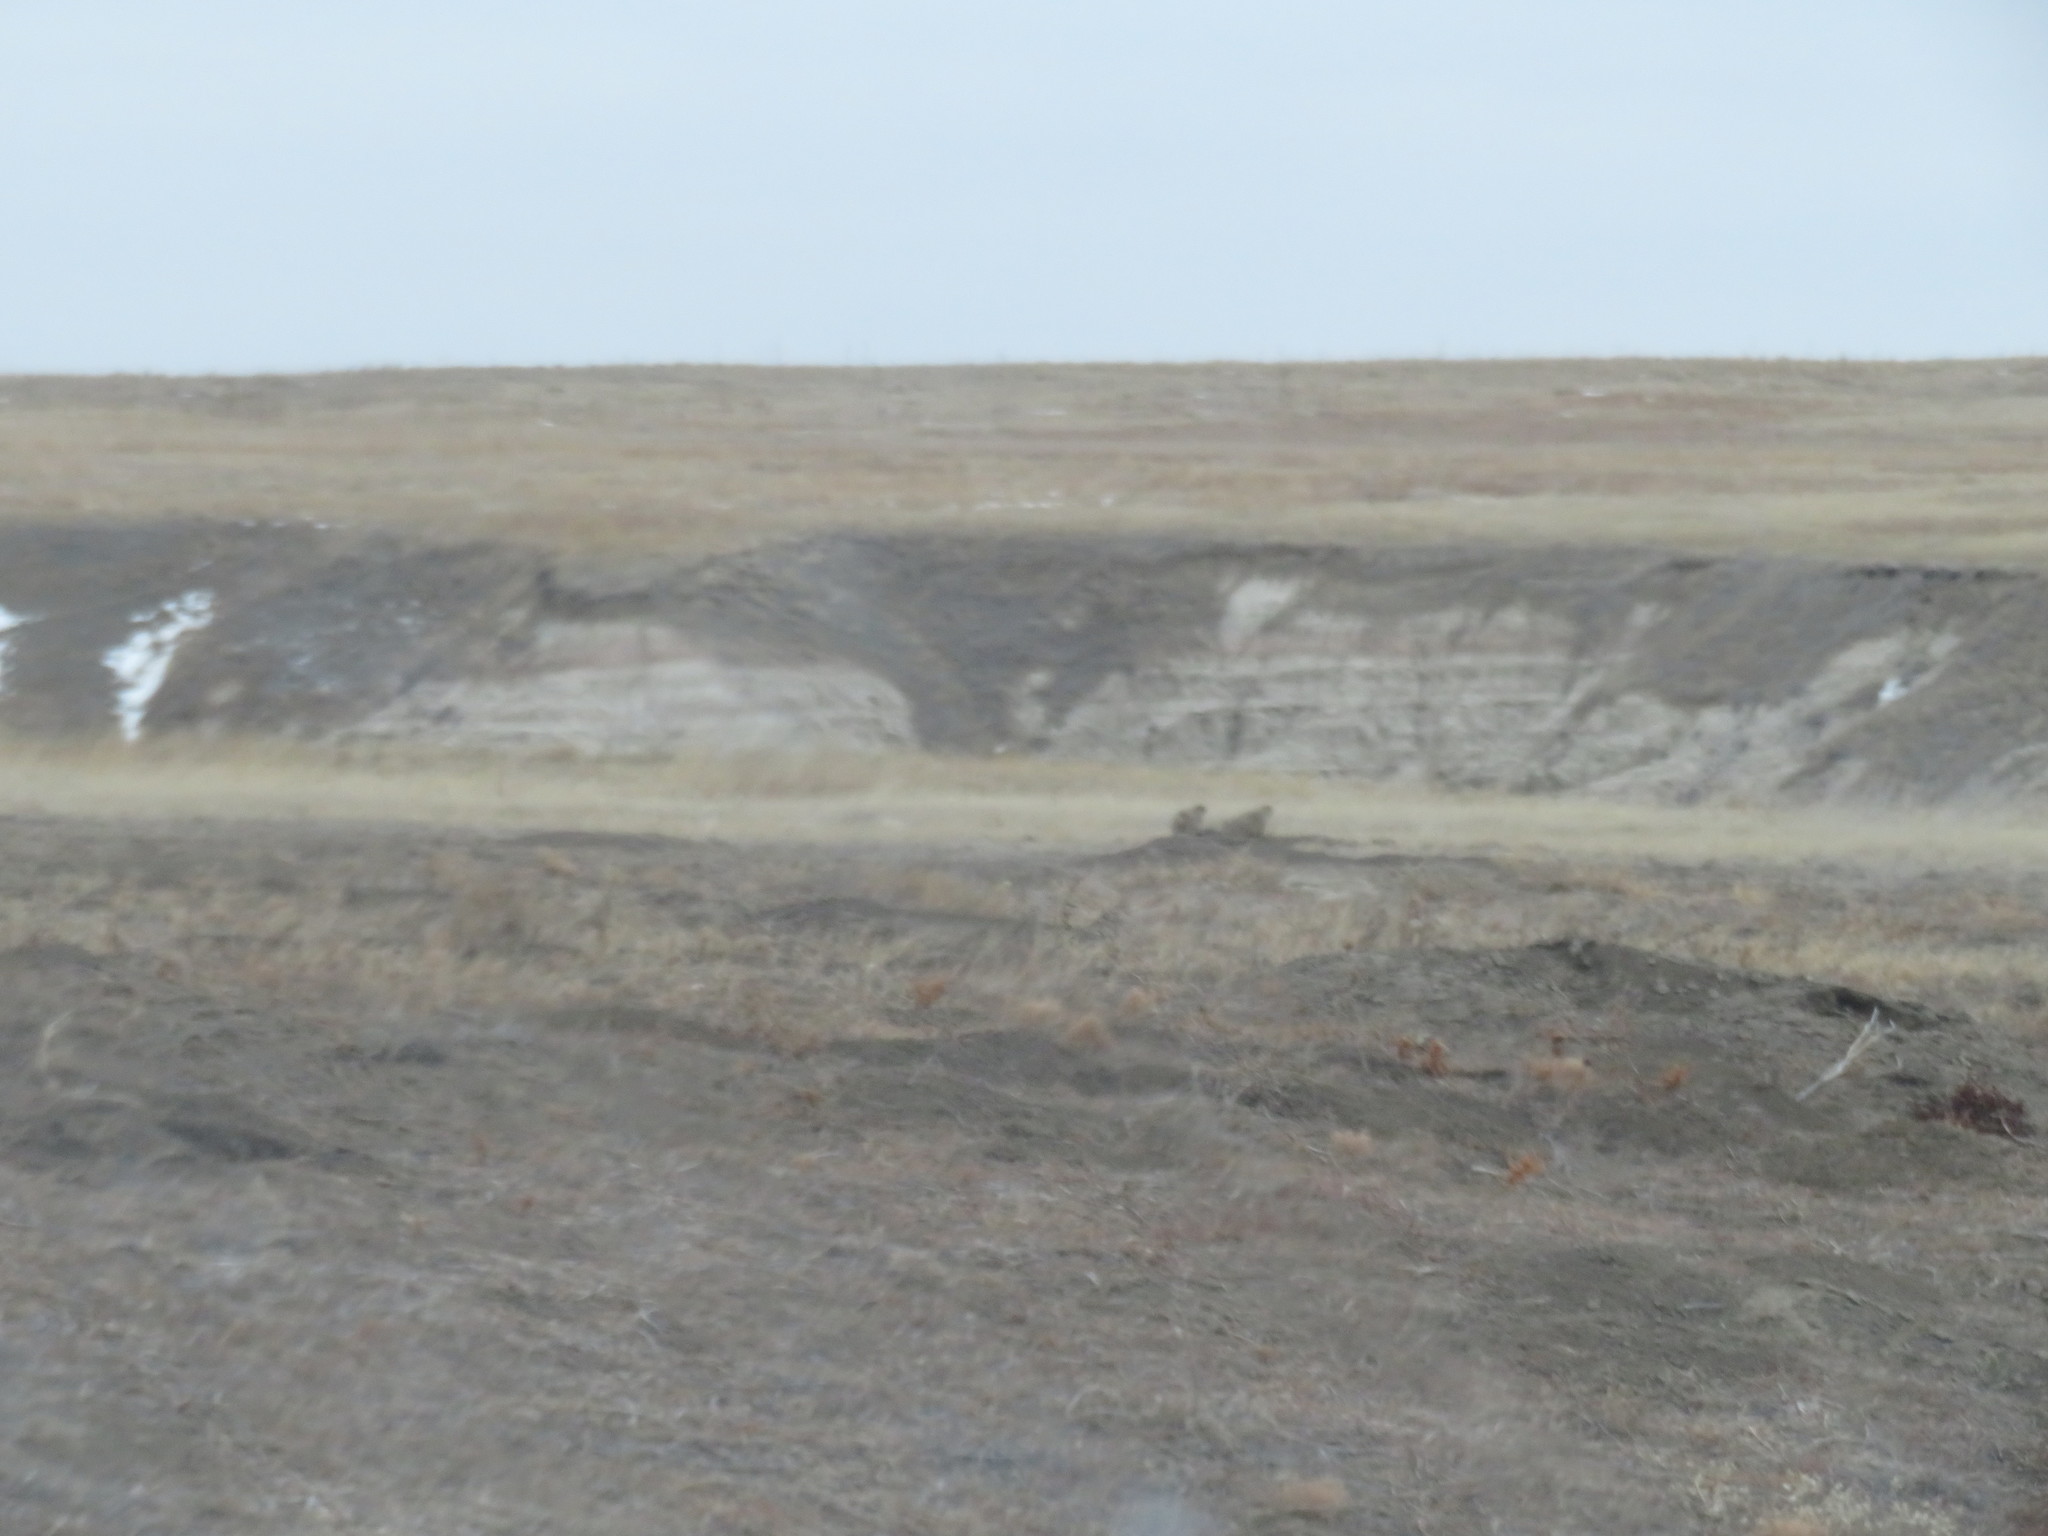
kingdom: Animalia
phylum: Chordata
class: Mammalia
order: Rodentia
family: Sciuridae
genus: Cynomys
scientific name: Cynomys ludovicianus
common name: Black-tailed prairie dog
